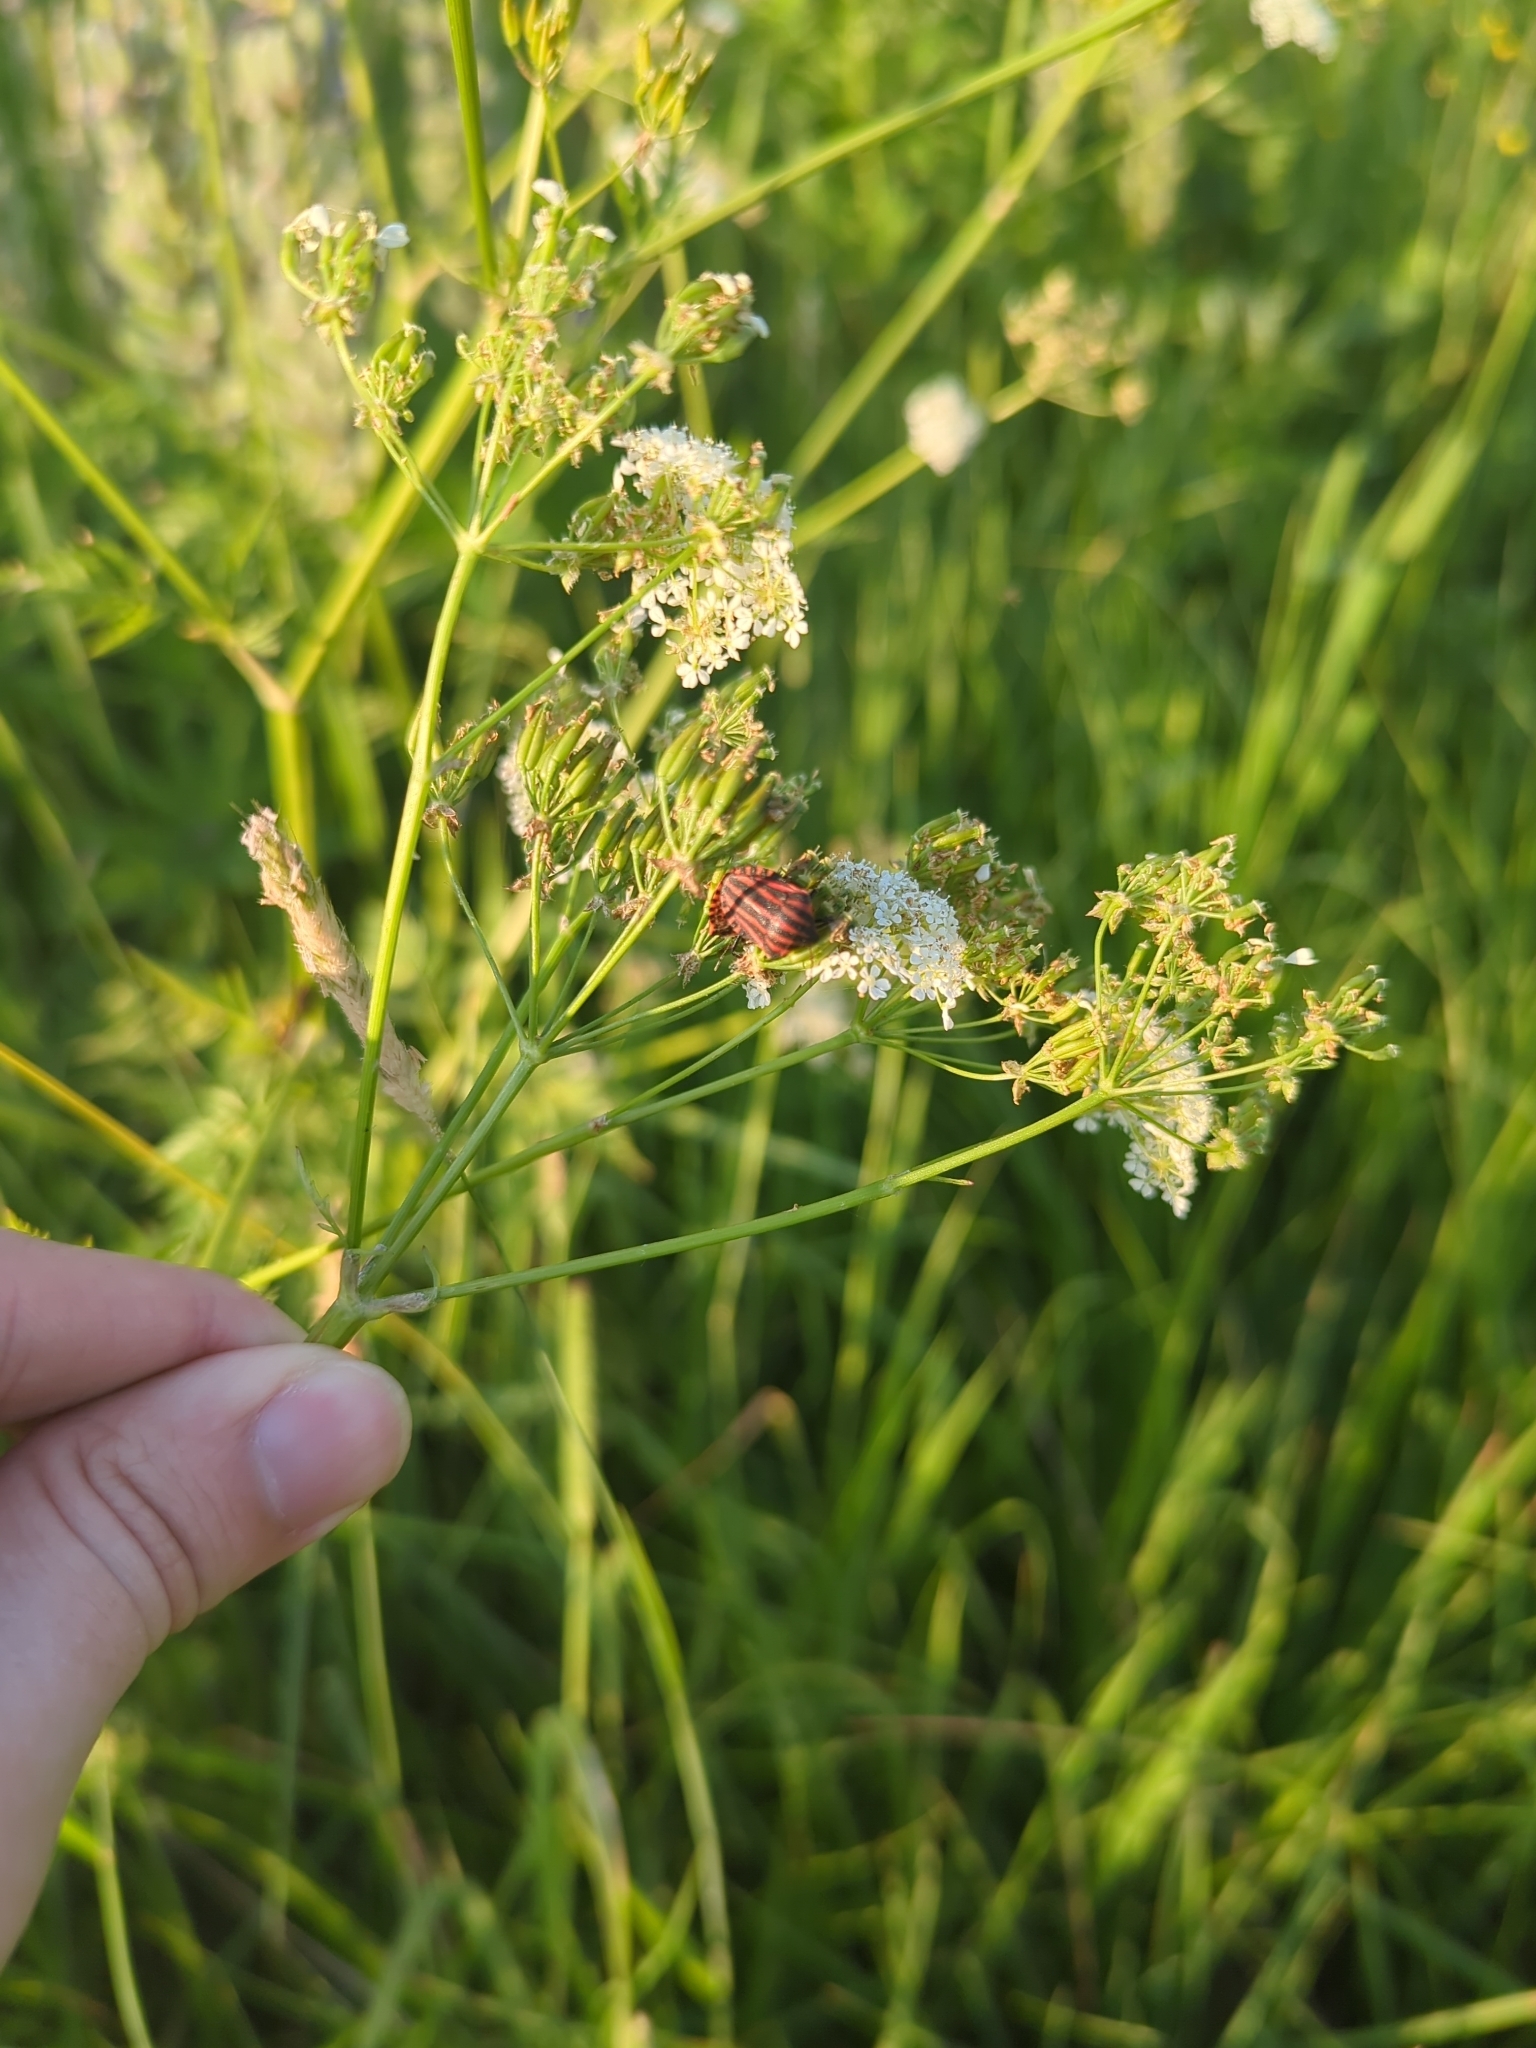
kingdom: Animalia
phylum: Arthropoda
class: Insecta
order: Hemiptera
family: Pentatomidae
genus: Graphosoma
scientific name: Graphosoma italicum
